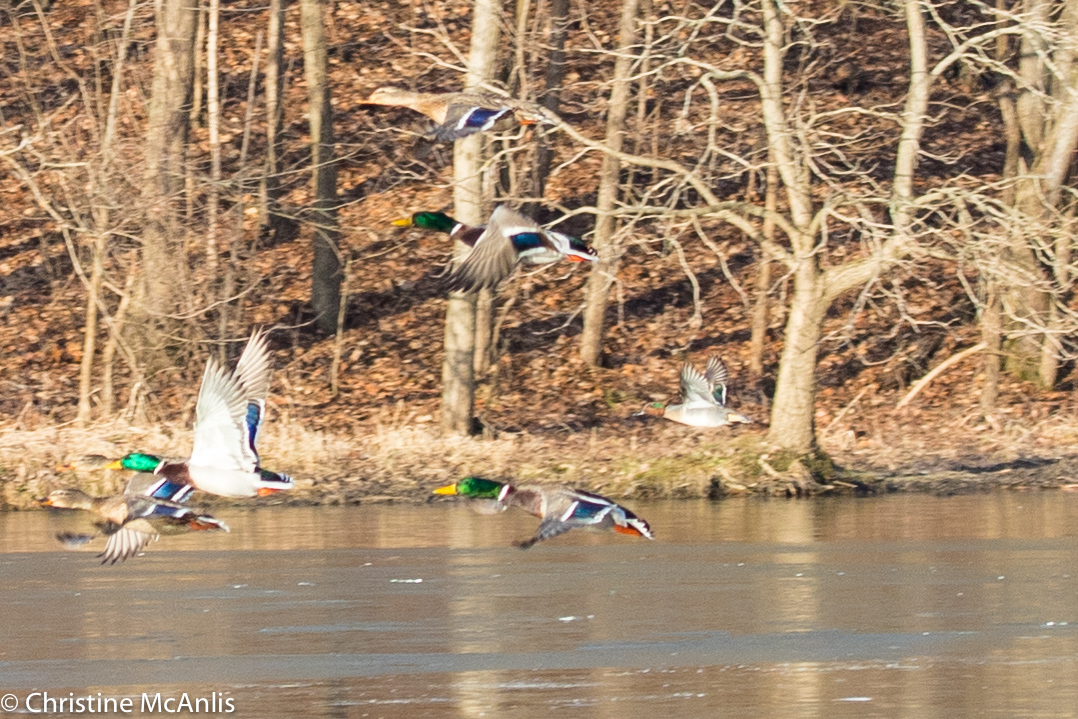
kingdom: Animalia
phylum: Chordata
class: Aves
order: Anseriformes
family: Anatidae
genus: Anas
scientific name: Anas crecca
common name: Eurasian teal
